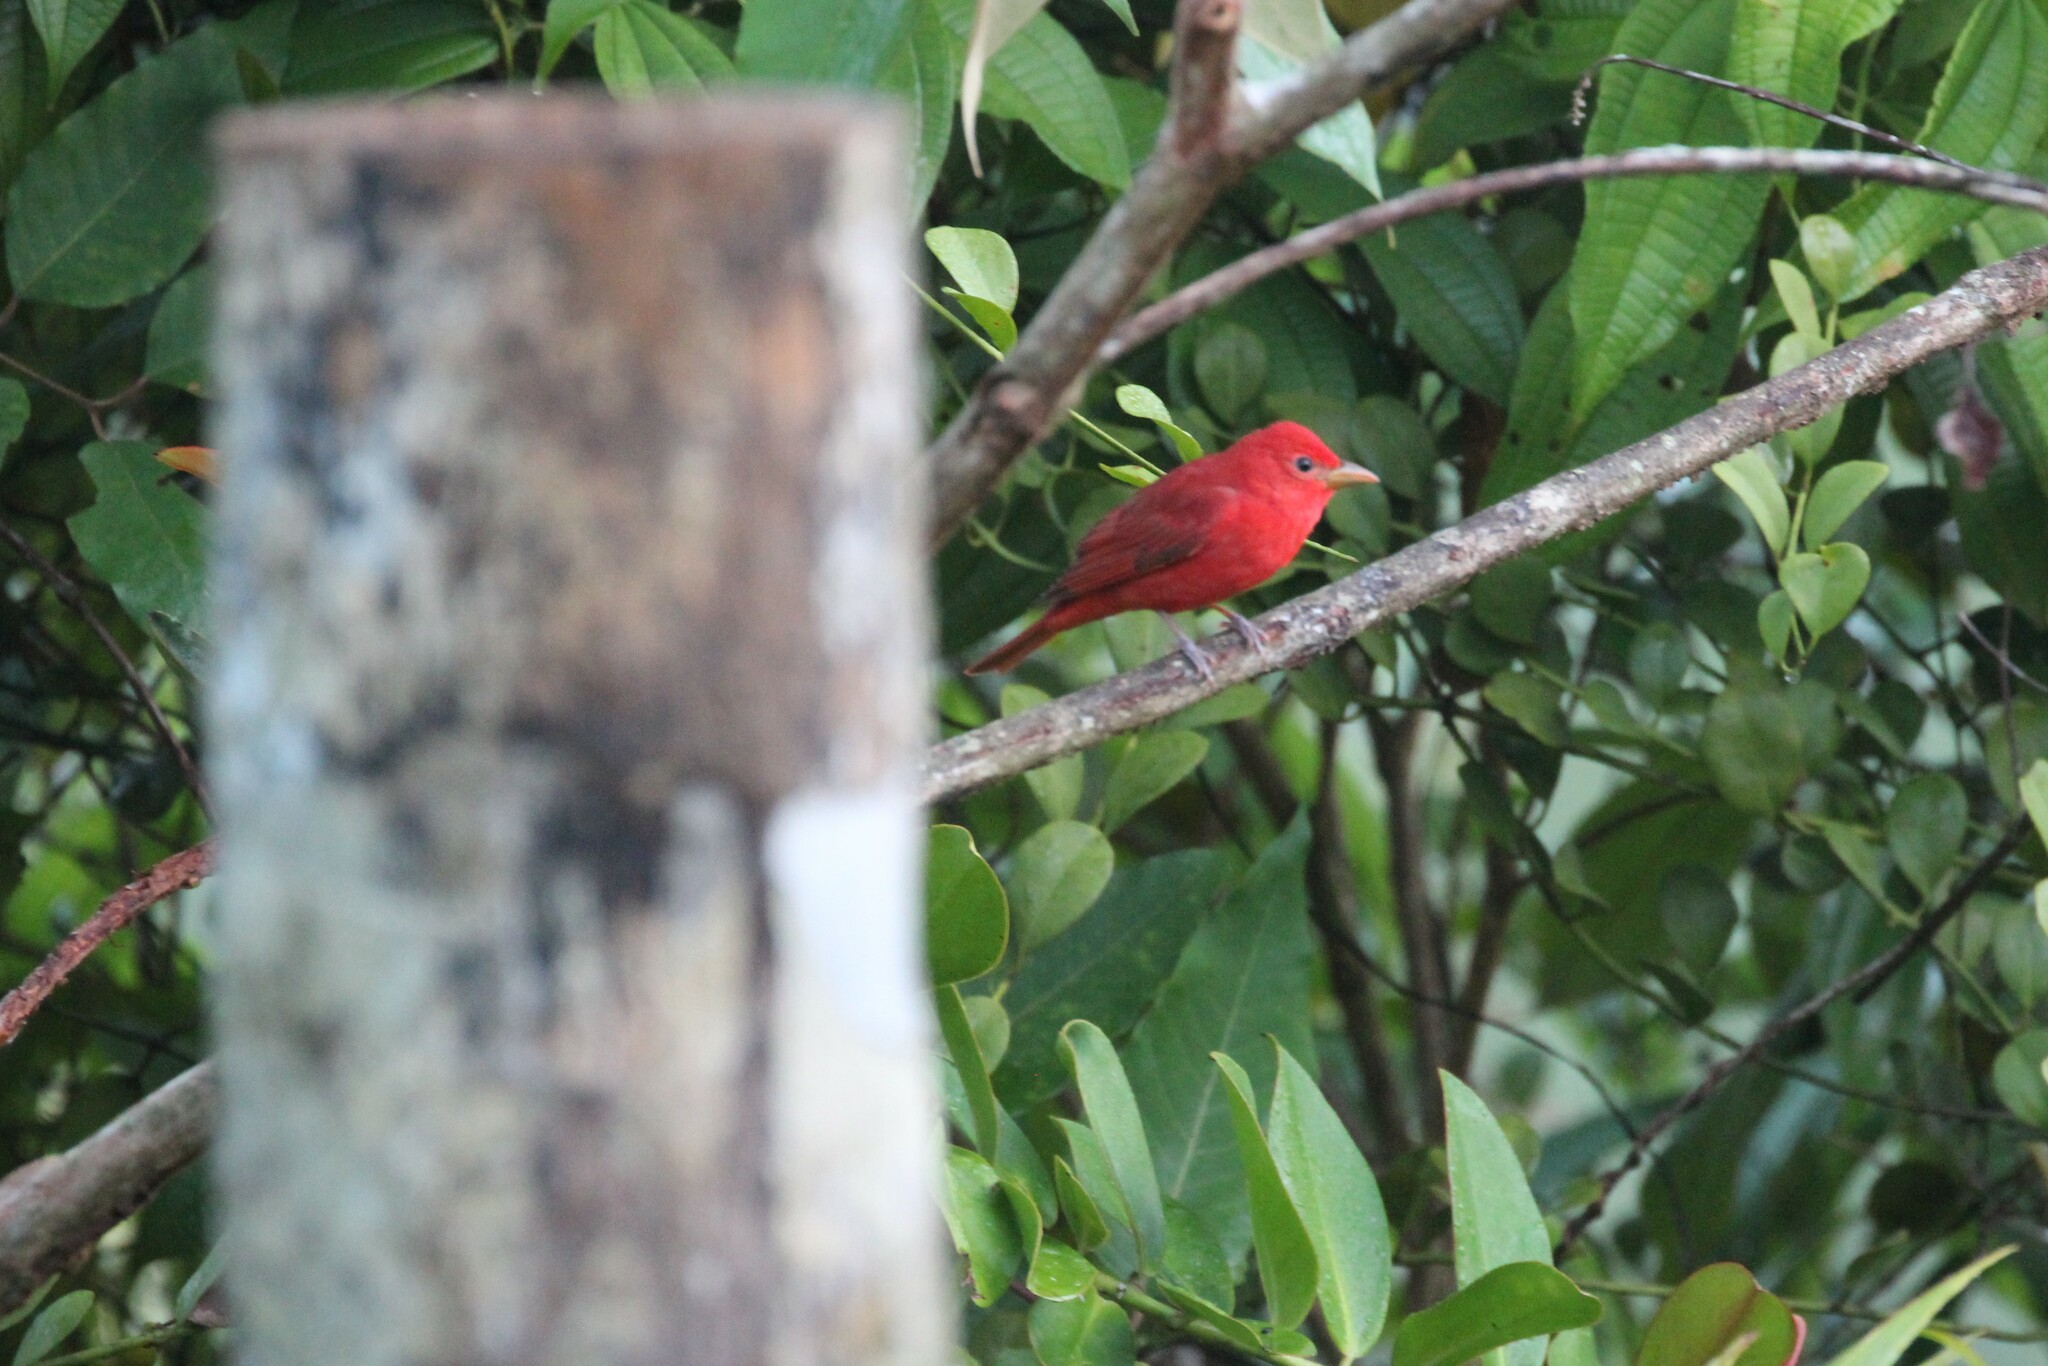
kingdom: Animalia
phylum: Chordata
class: Aves
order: Passeriformes
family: Cardinalidae
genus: Piranga
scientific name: Piranga rubra
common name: Summer tanager
